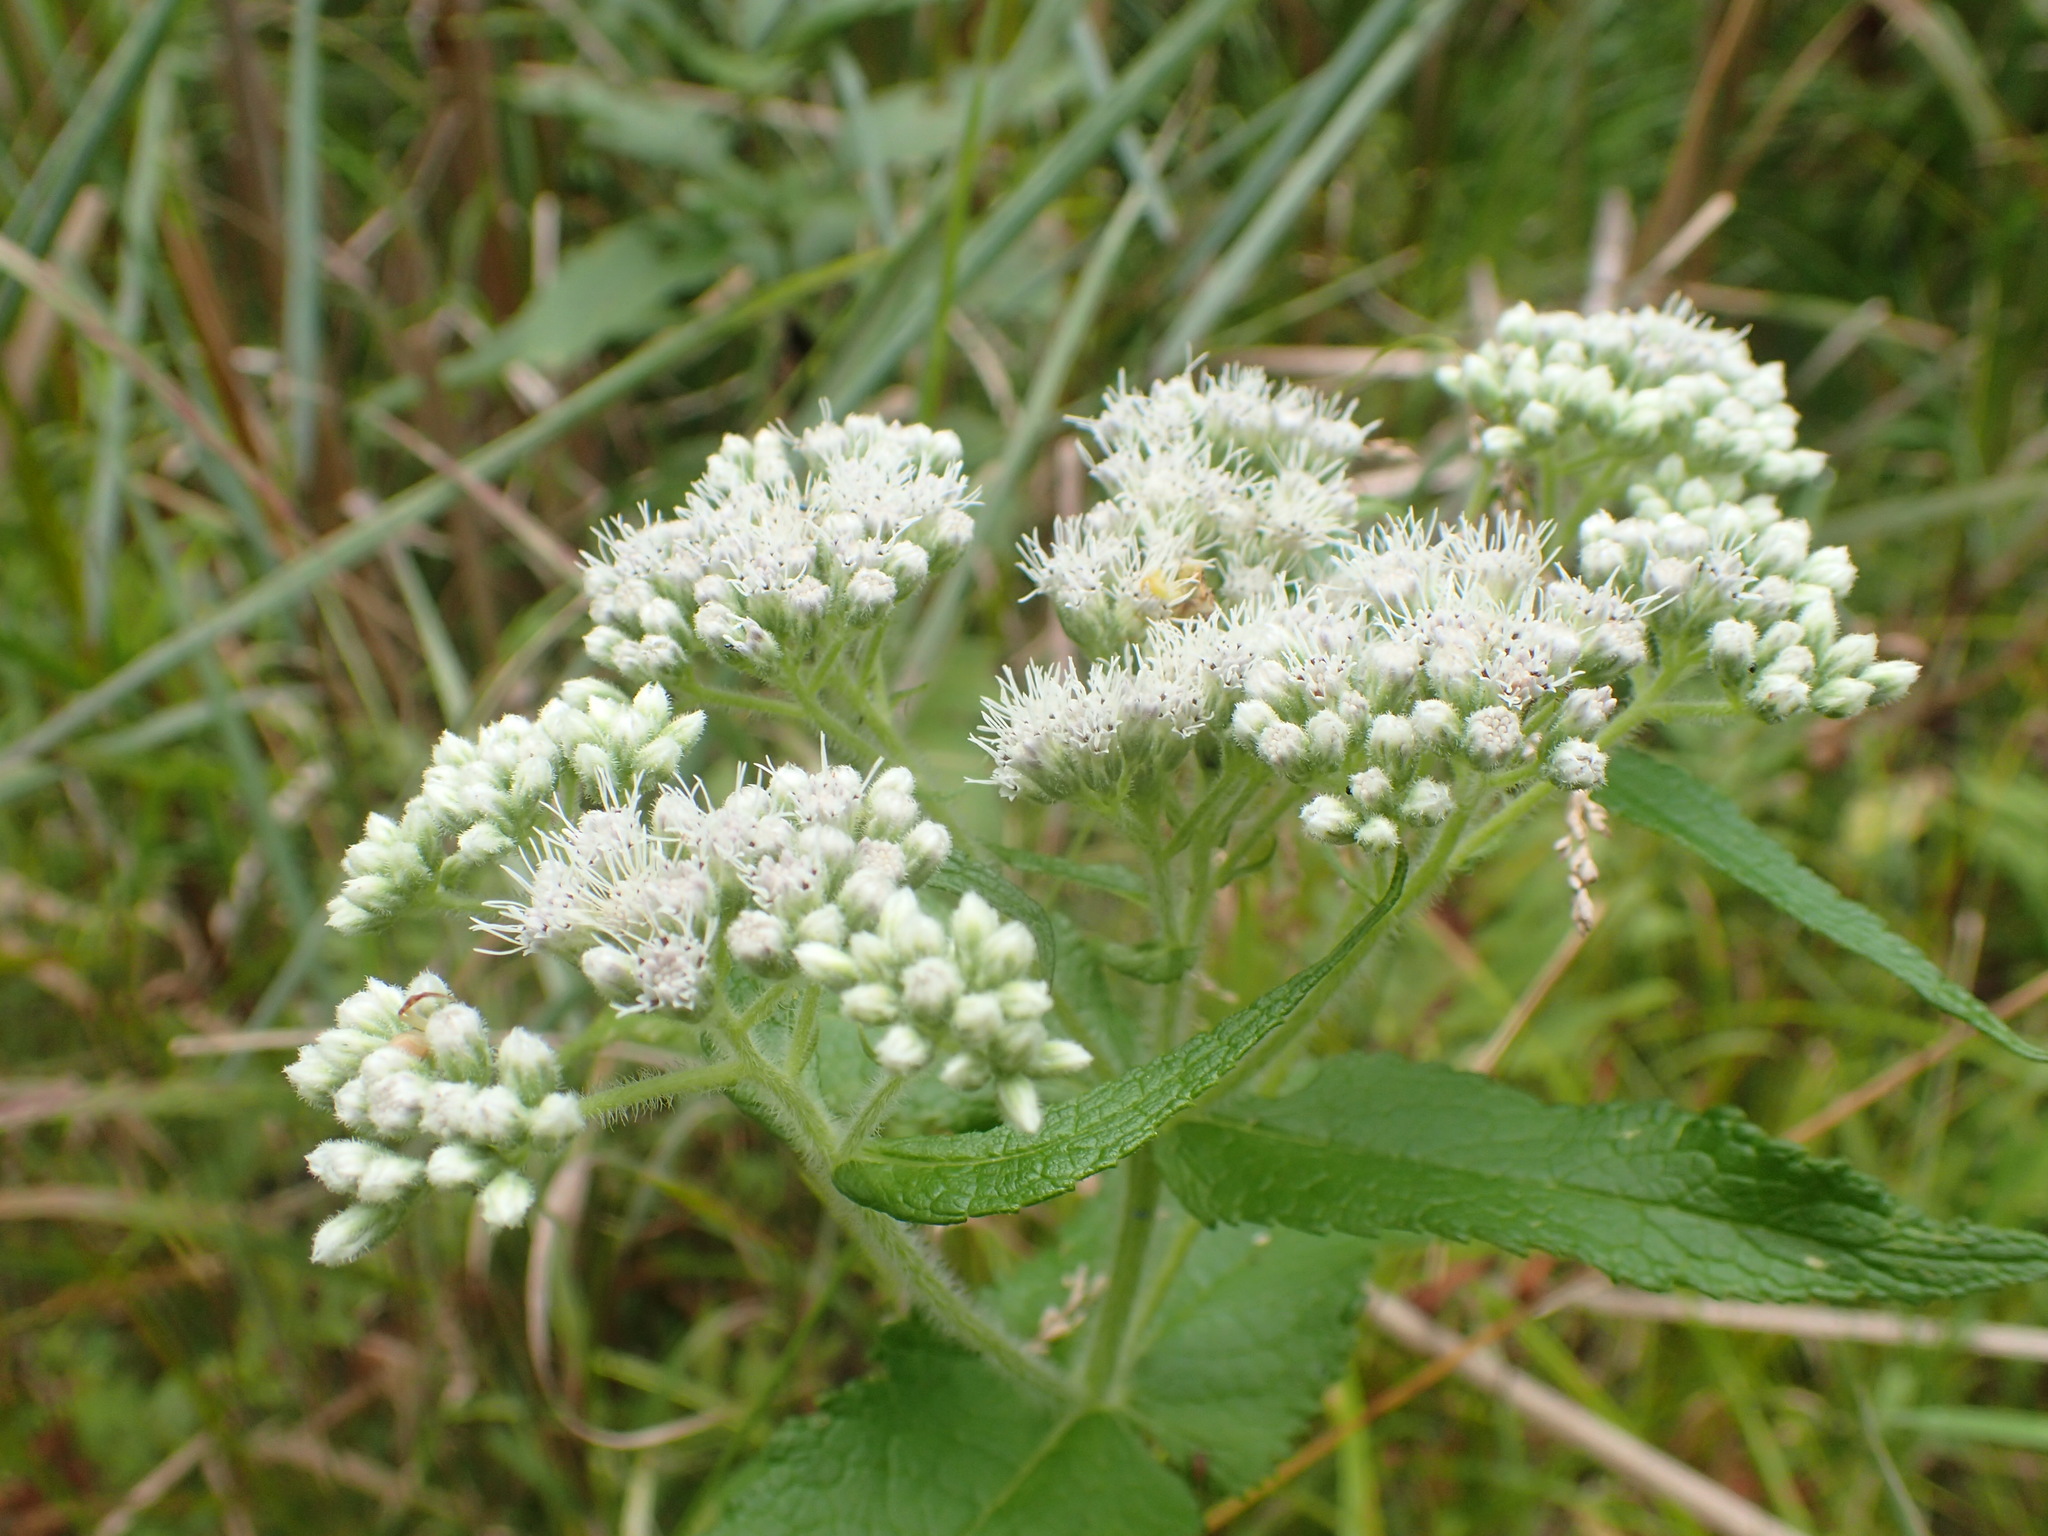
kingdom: Plantae
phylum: Tracheophyta
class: Magnoliopsida
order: Asterales
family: Asteraceae
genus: Eupatorium
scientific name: Eupatorium perfoliatum
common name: Boneset
